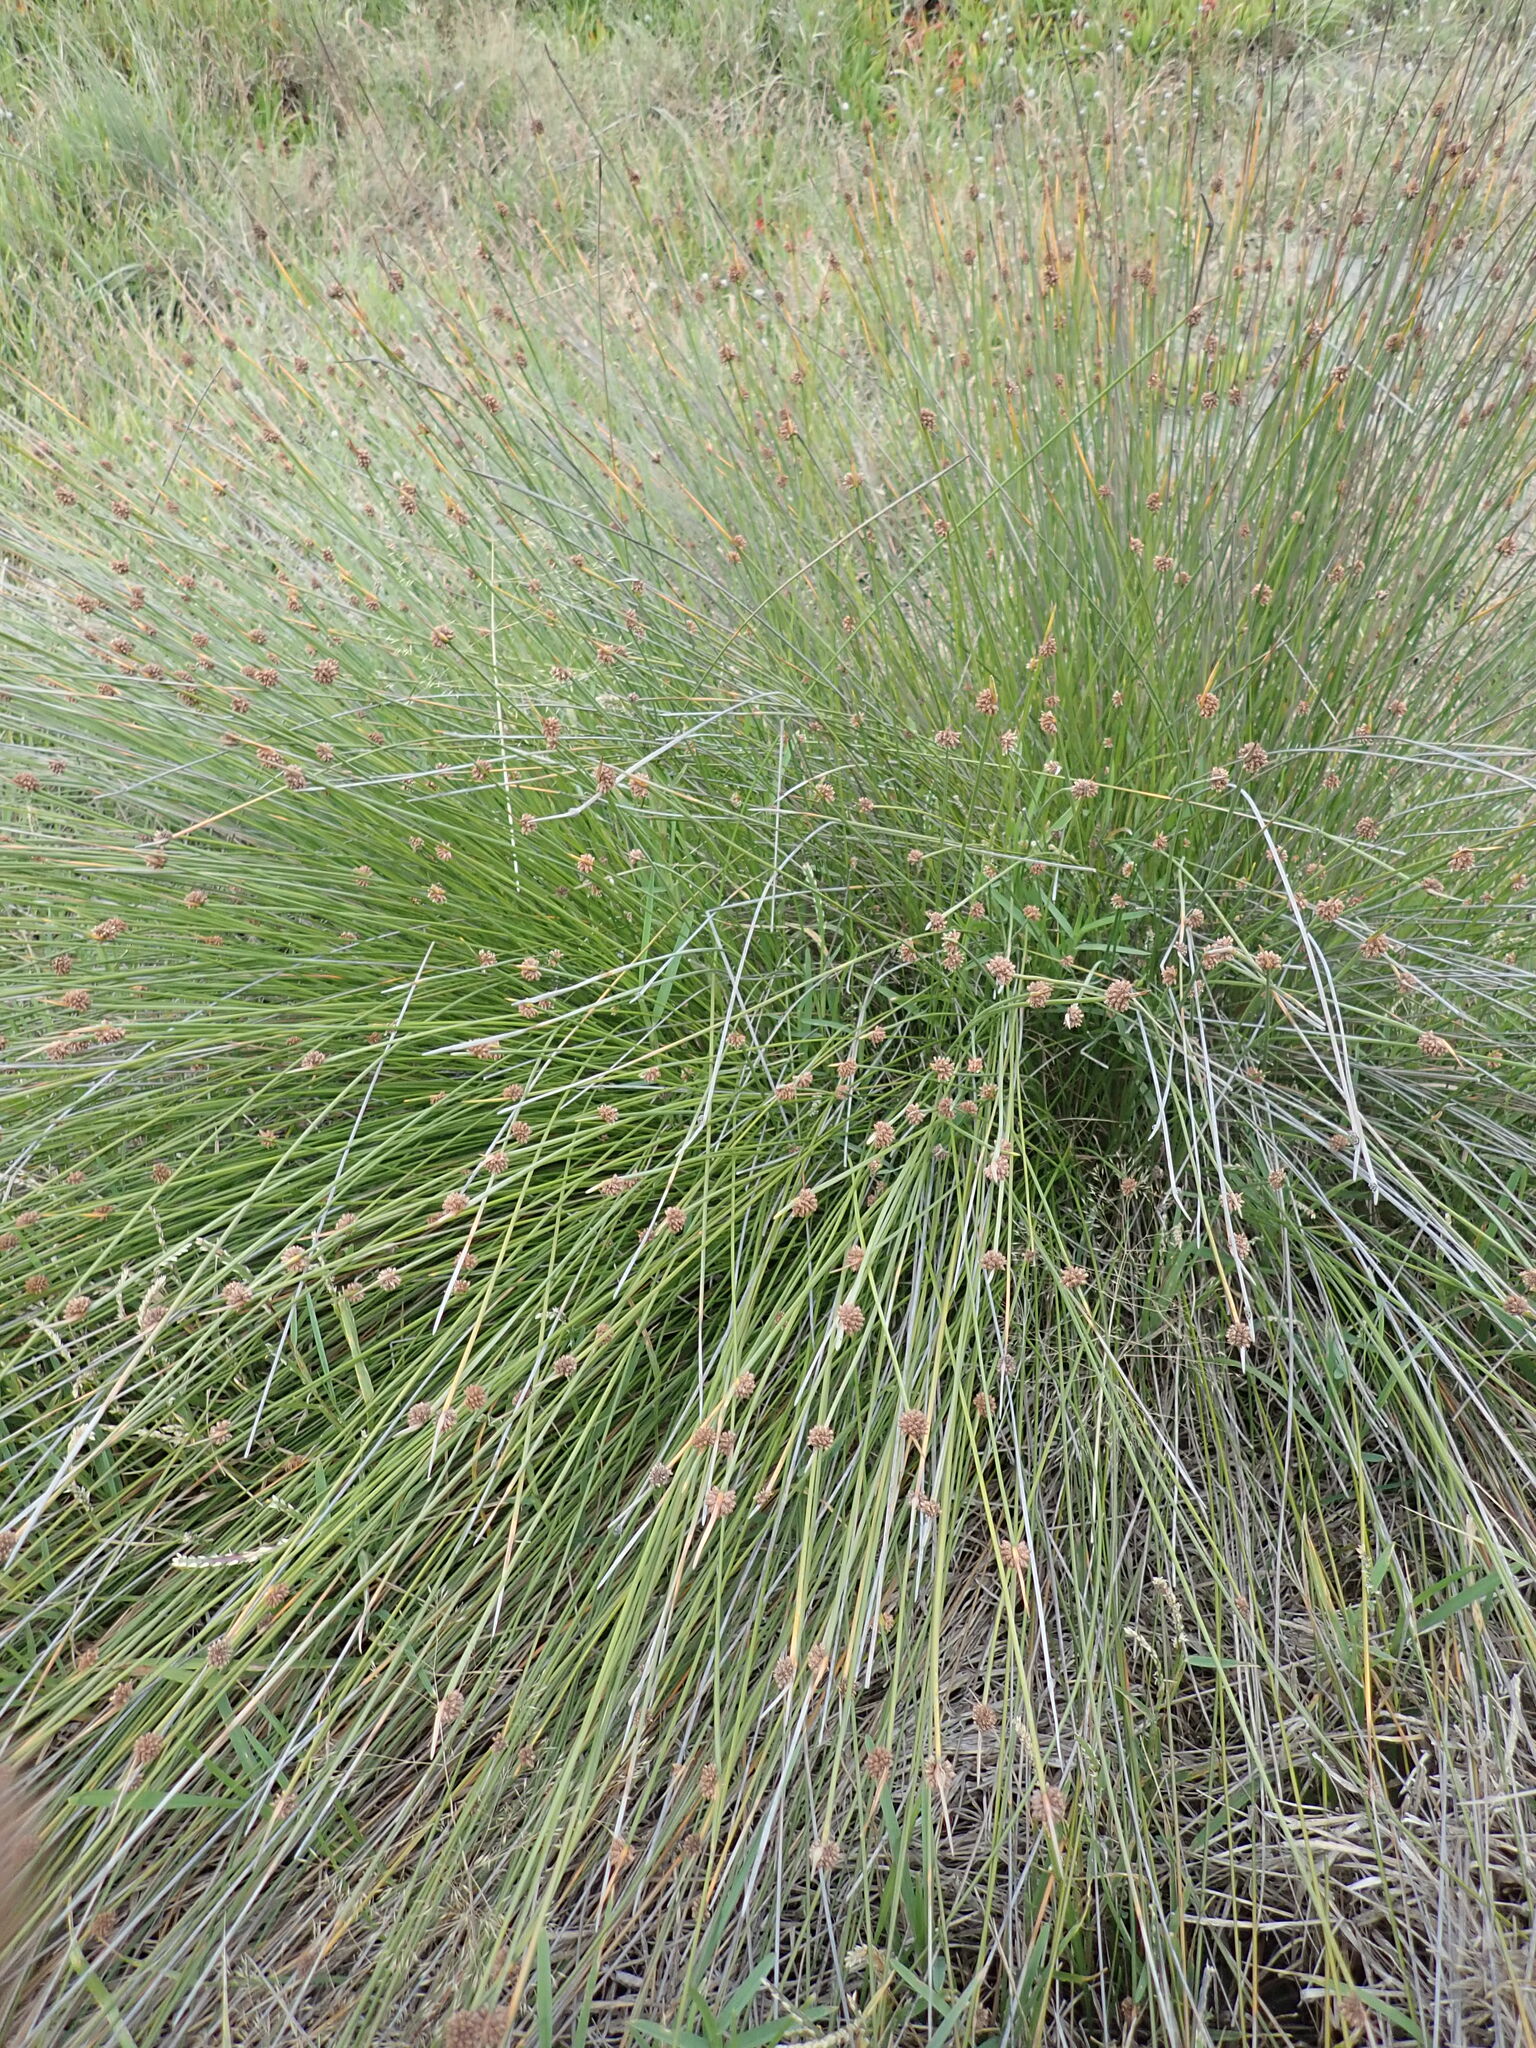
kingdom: Plantae
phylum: Tracheophyta
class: Liliopsida
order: Poales
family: Cyperaceae
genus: Ficinia
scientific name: Ficinia nodosa
